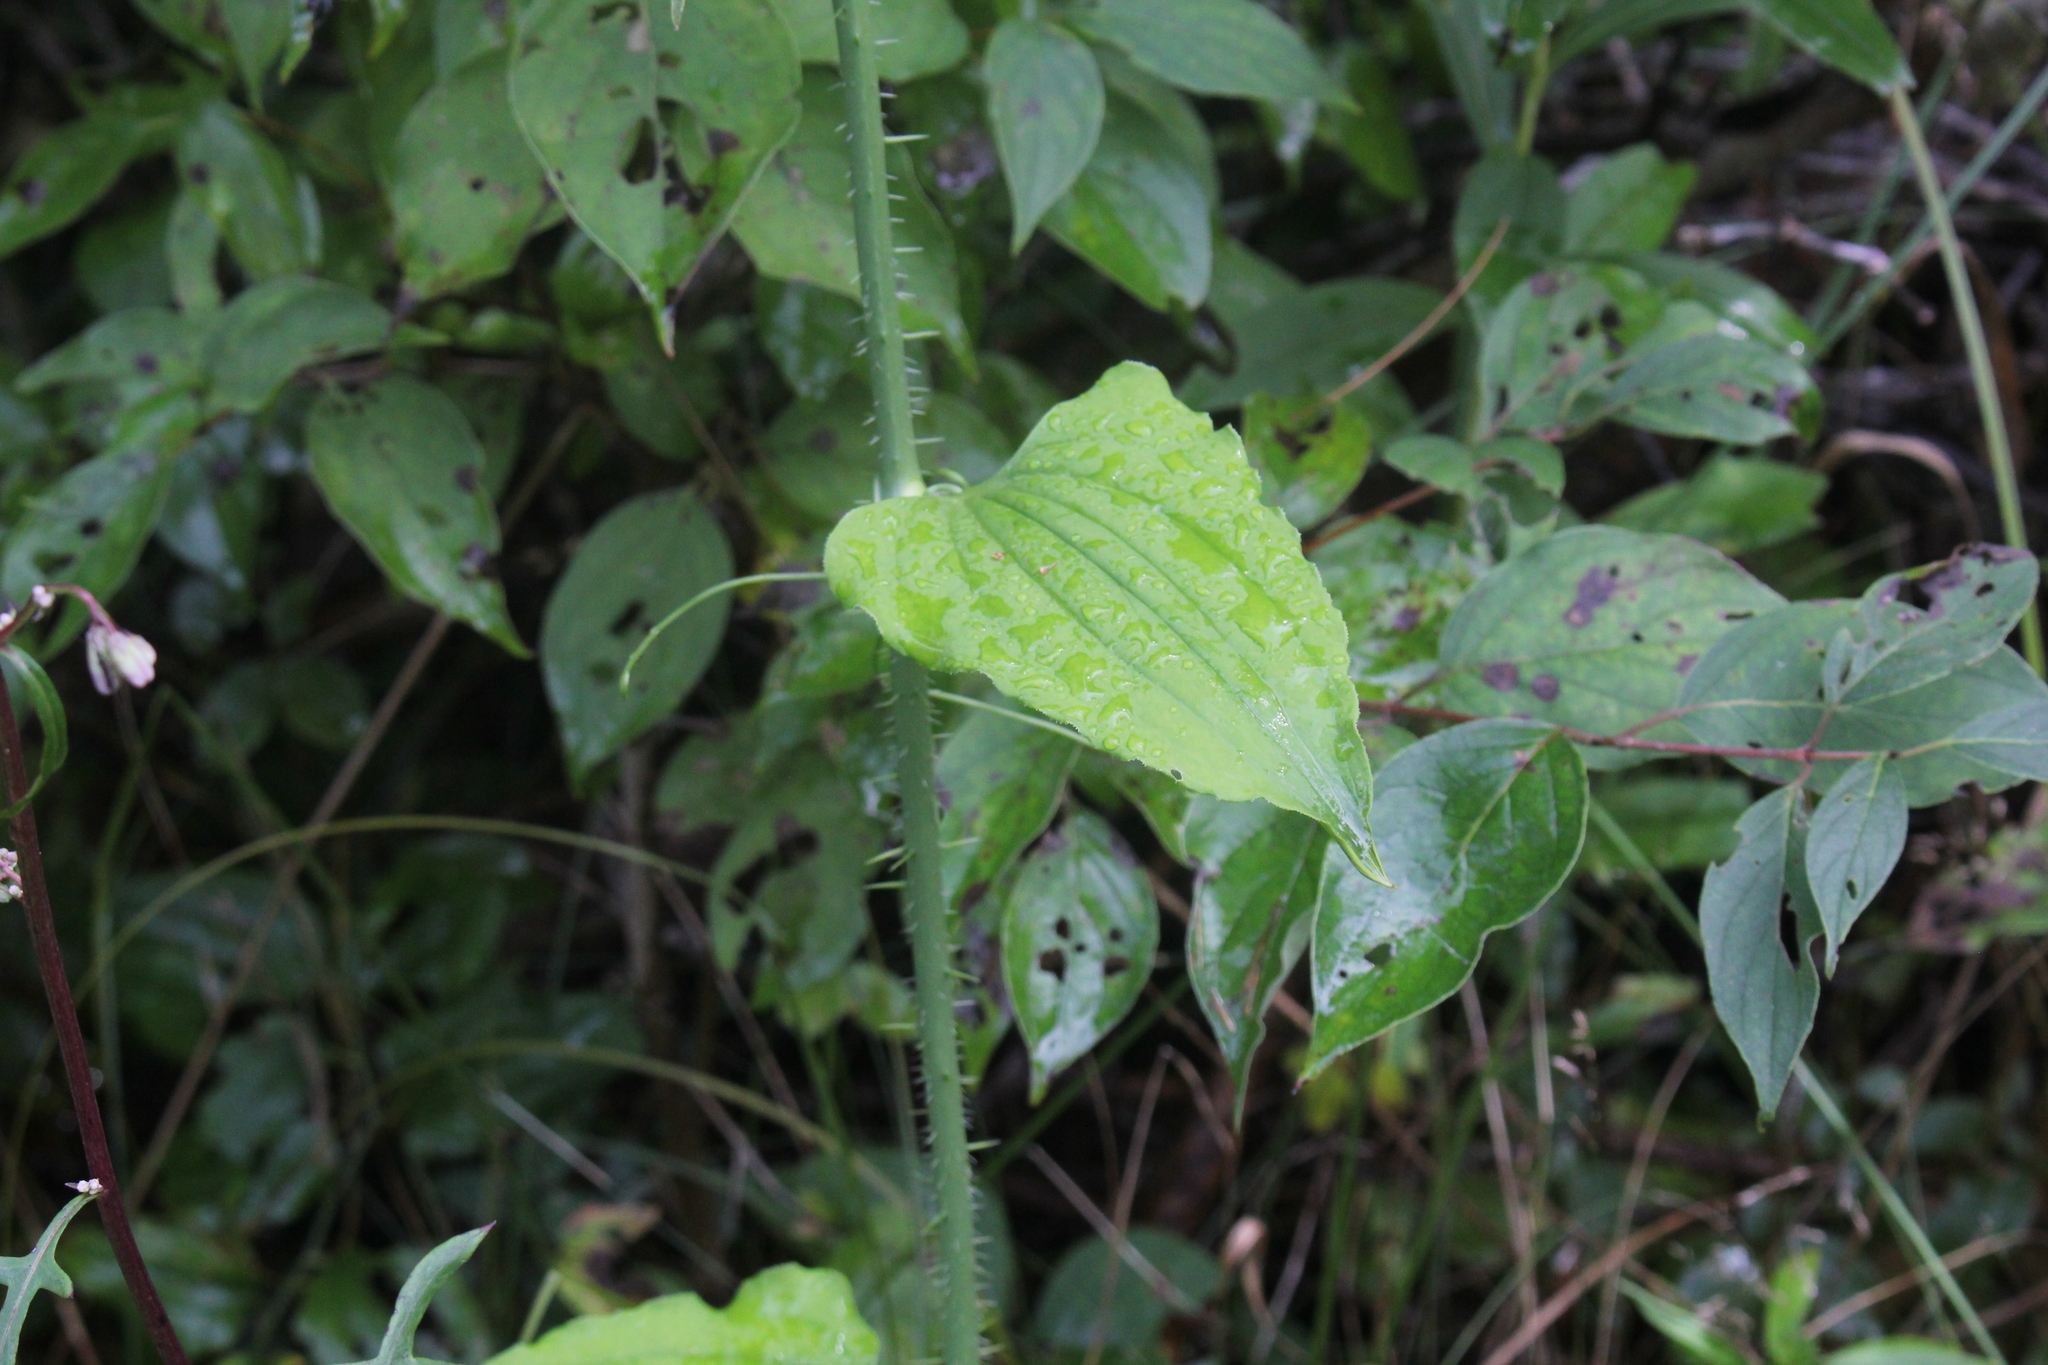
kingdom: Plantae
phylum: Tracheophyta
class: Liliopsida
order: Liliales
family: Smilacaceae
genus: Smilax
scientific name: Smilax tamnoides
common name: Hellfetter
